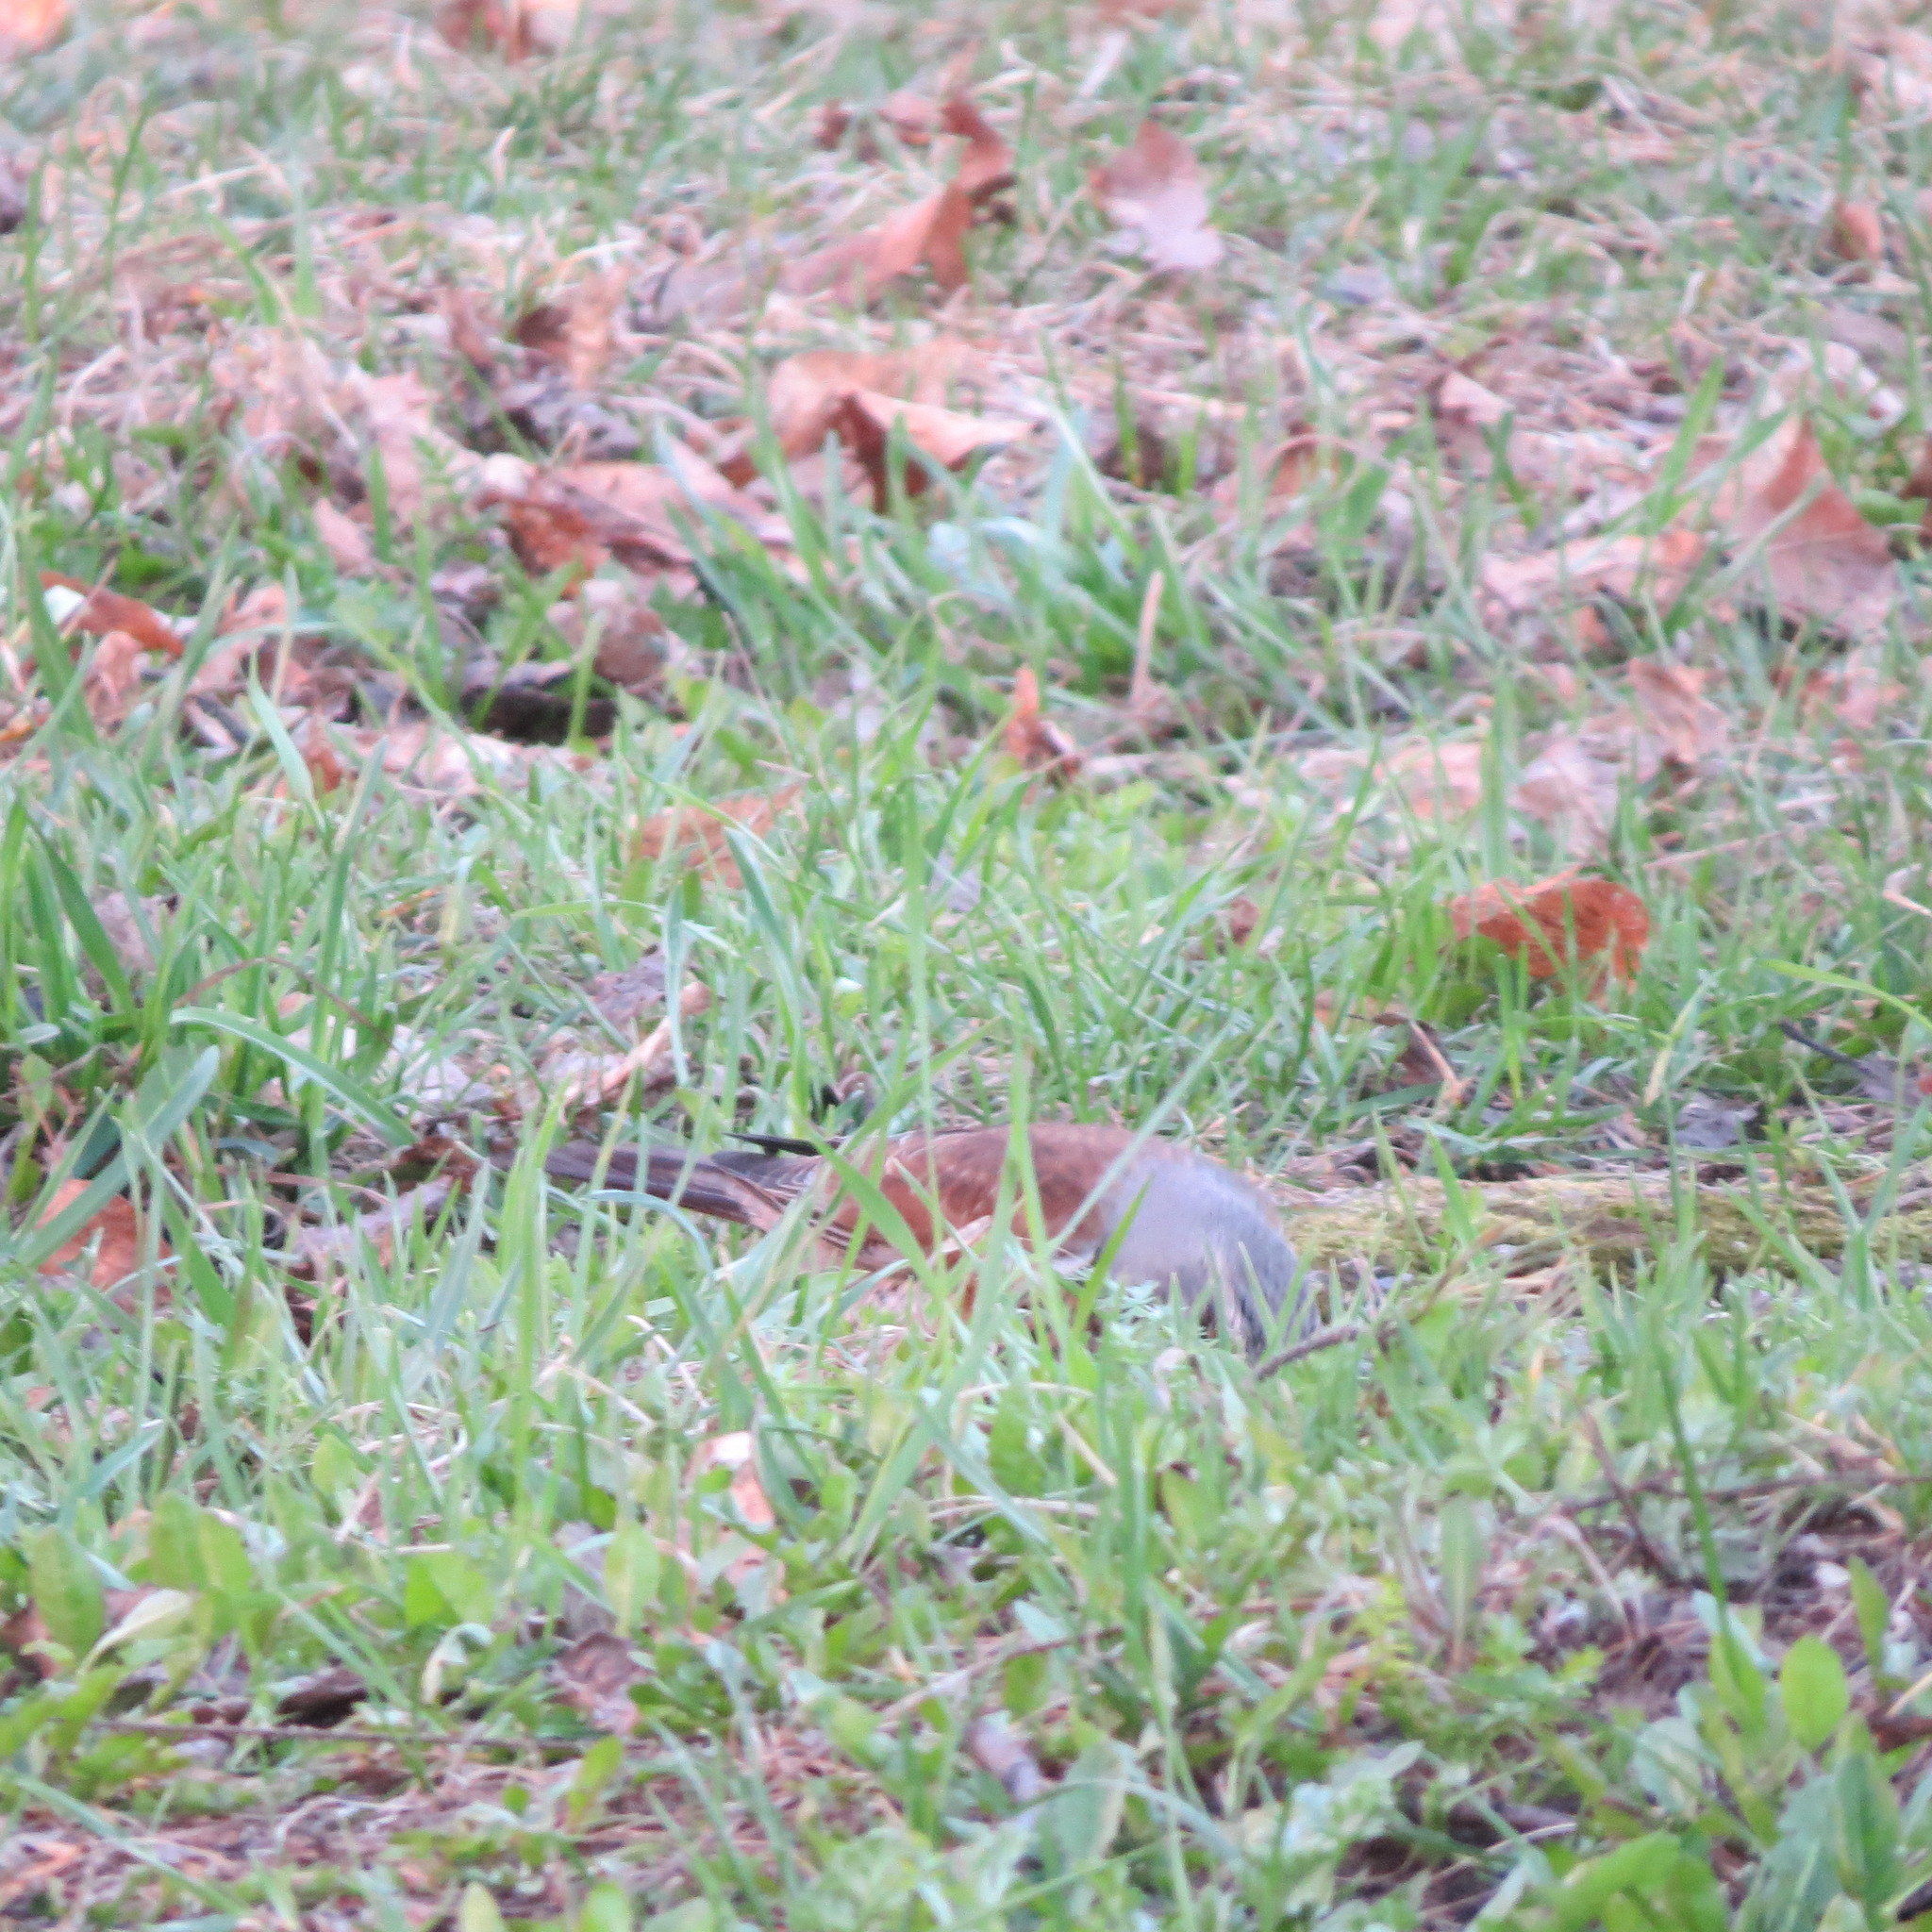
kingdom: Animalia
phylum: Chordata
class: Aves
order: Passeriformes
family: Turdidae
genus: Turdus
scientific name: Turdus pilaris
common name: Fieldfare
